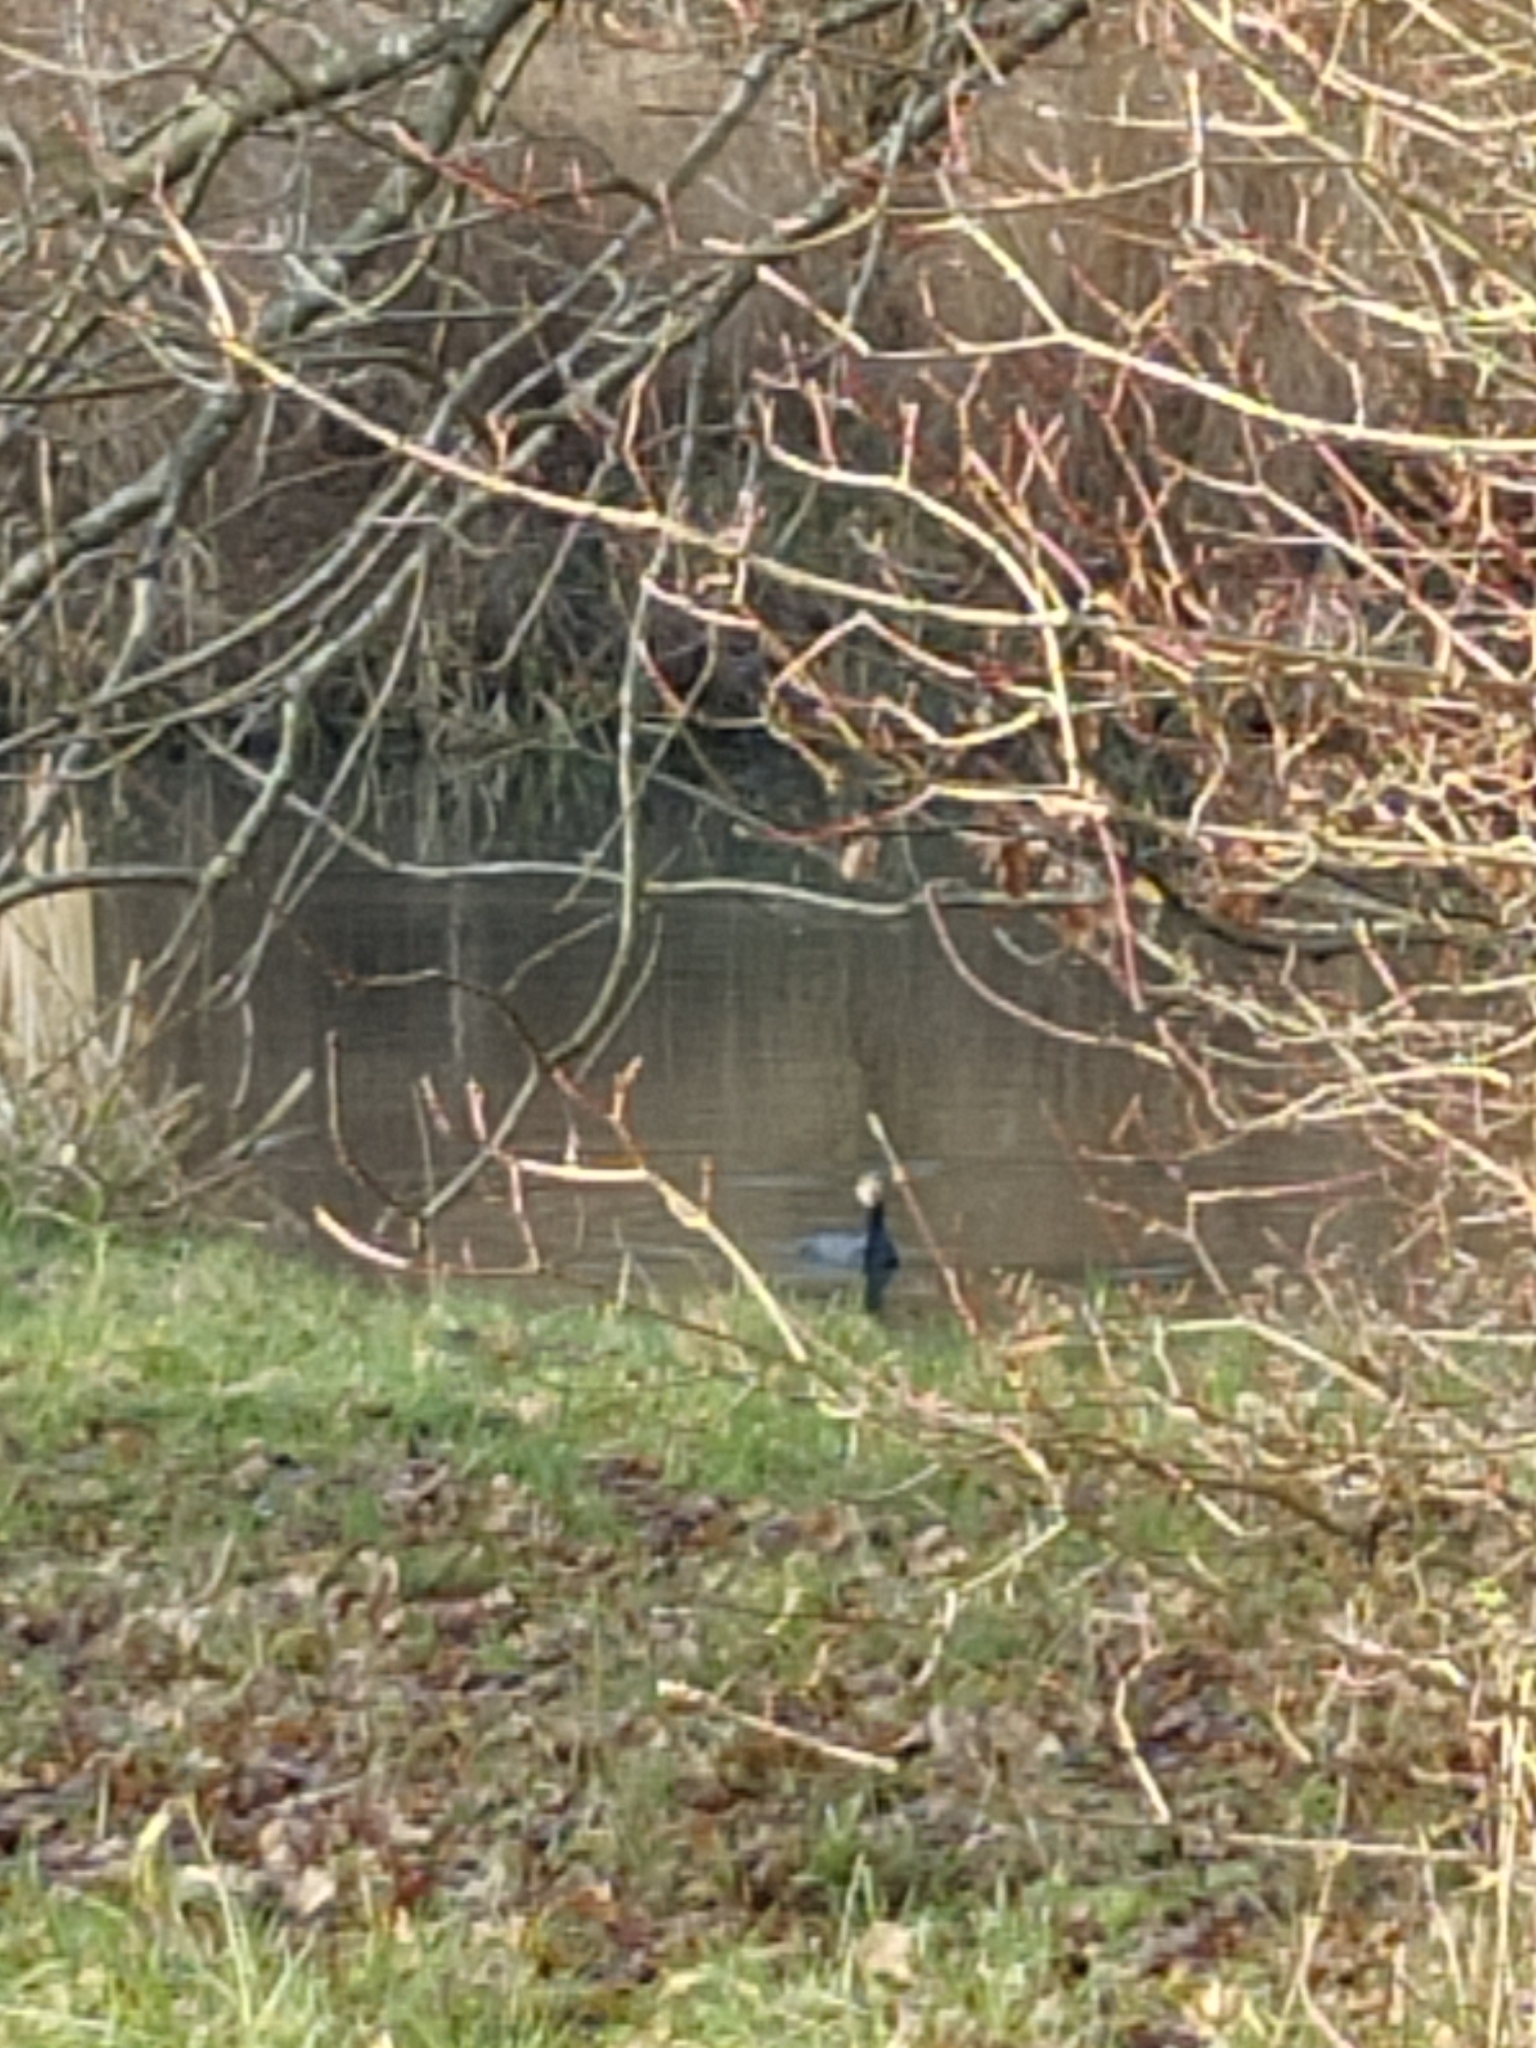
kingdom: Animalia
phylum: Chordata
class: Aves
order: Suliformes
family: Phalacrocoracidae
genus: Phalacrocorax
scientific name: Phalacrocorax carbo
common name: Great cormorant
